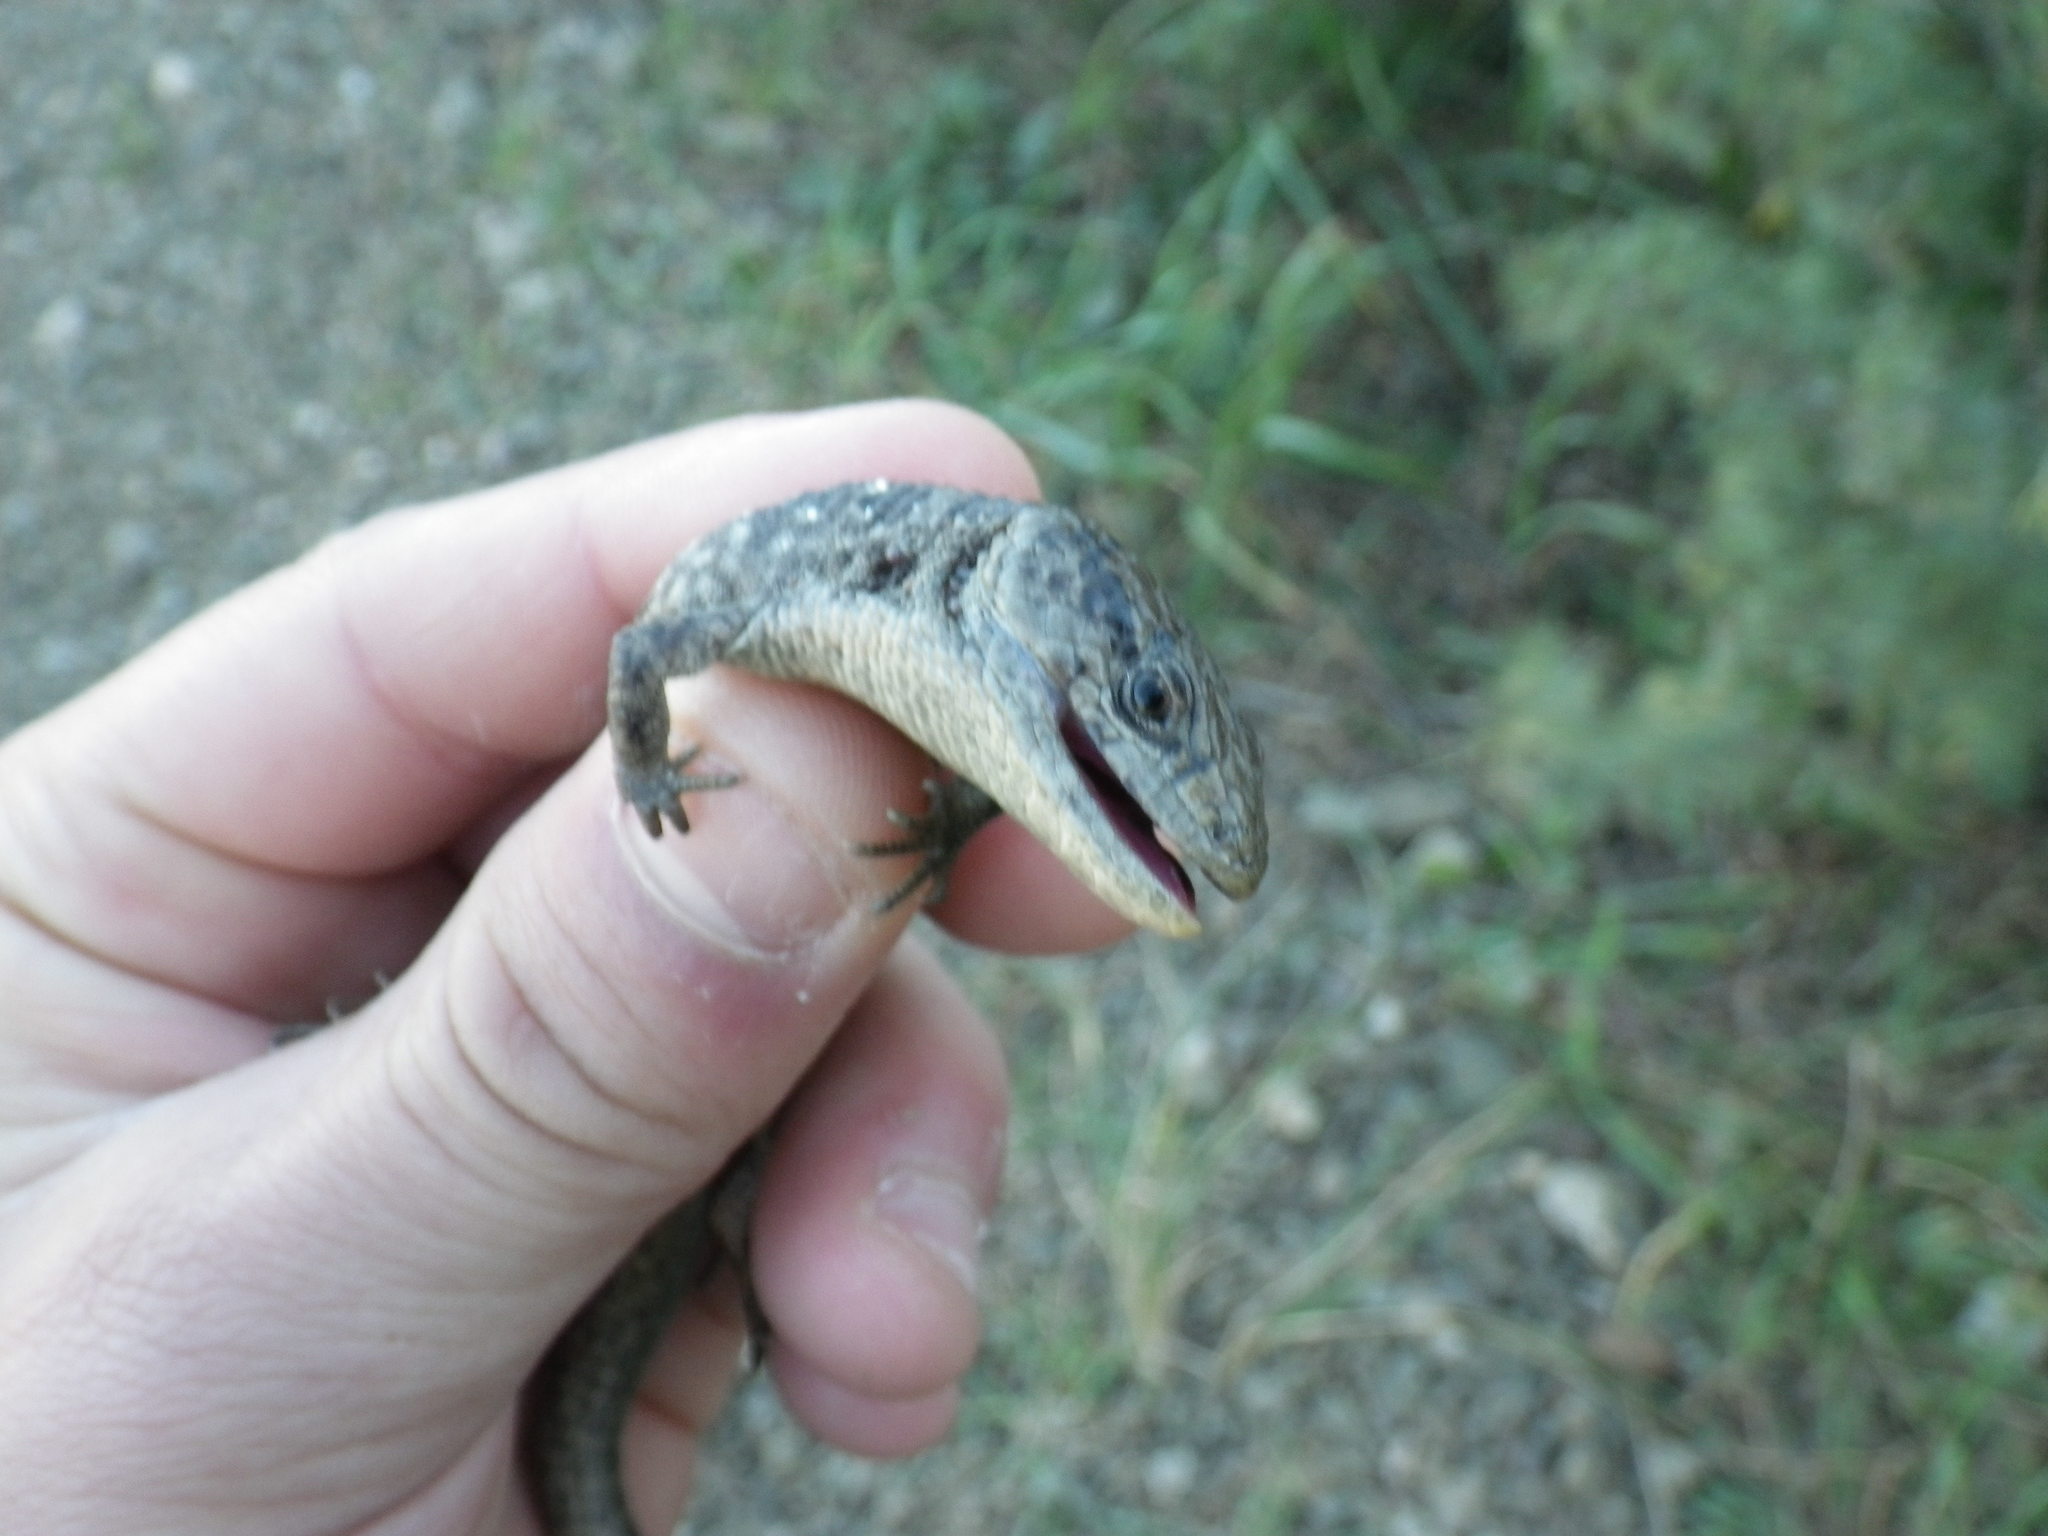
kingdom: Animalia
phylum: Chordata
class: Squamata
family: Anguidae
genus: Elgaria
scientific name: Elgaria coerulea
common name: Northern alligator lizard
